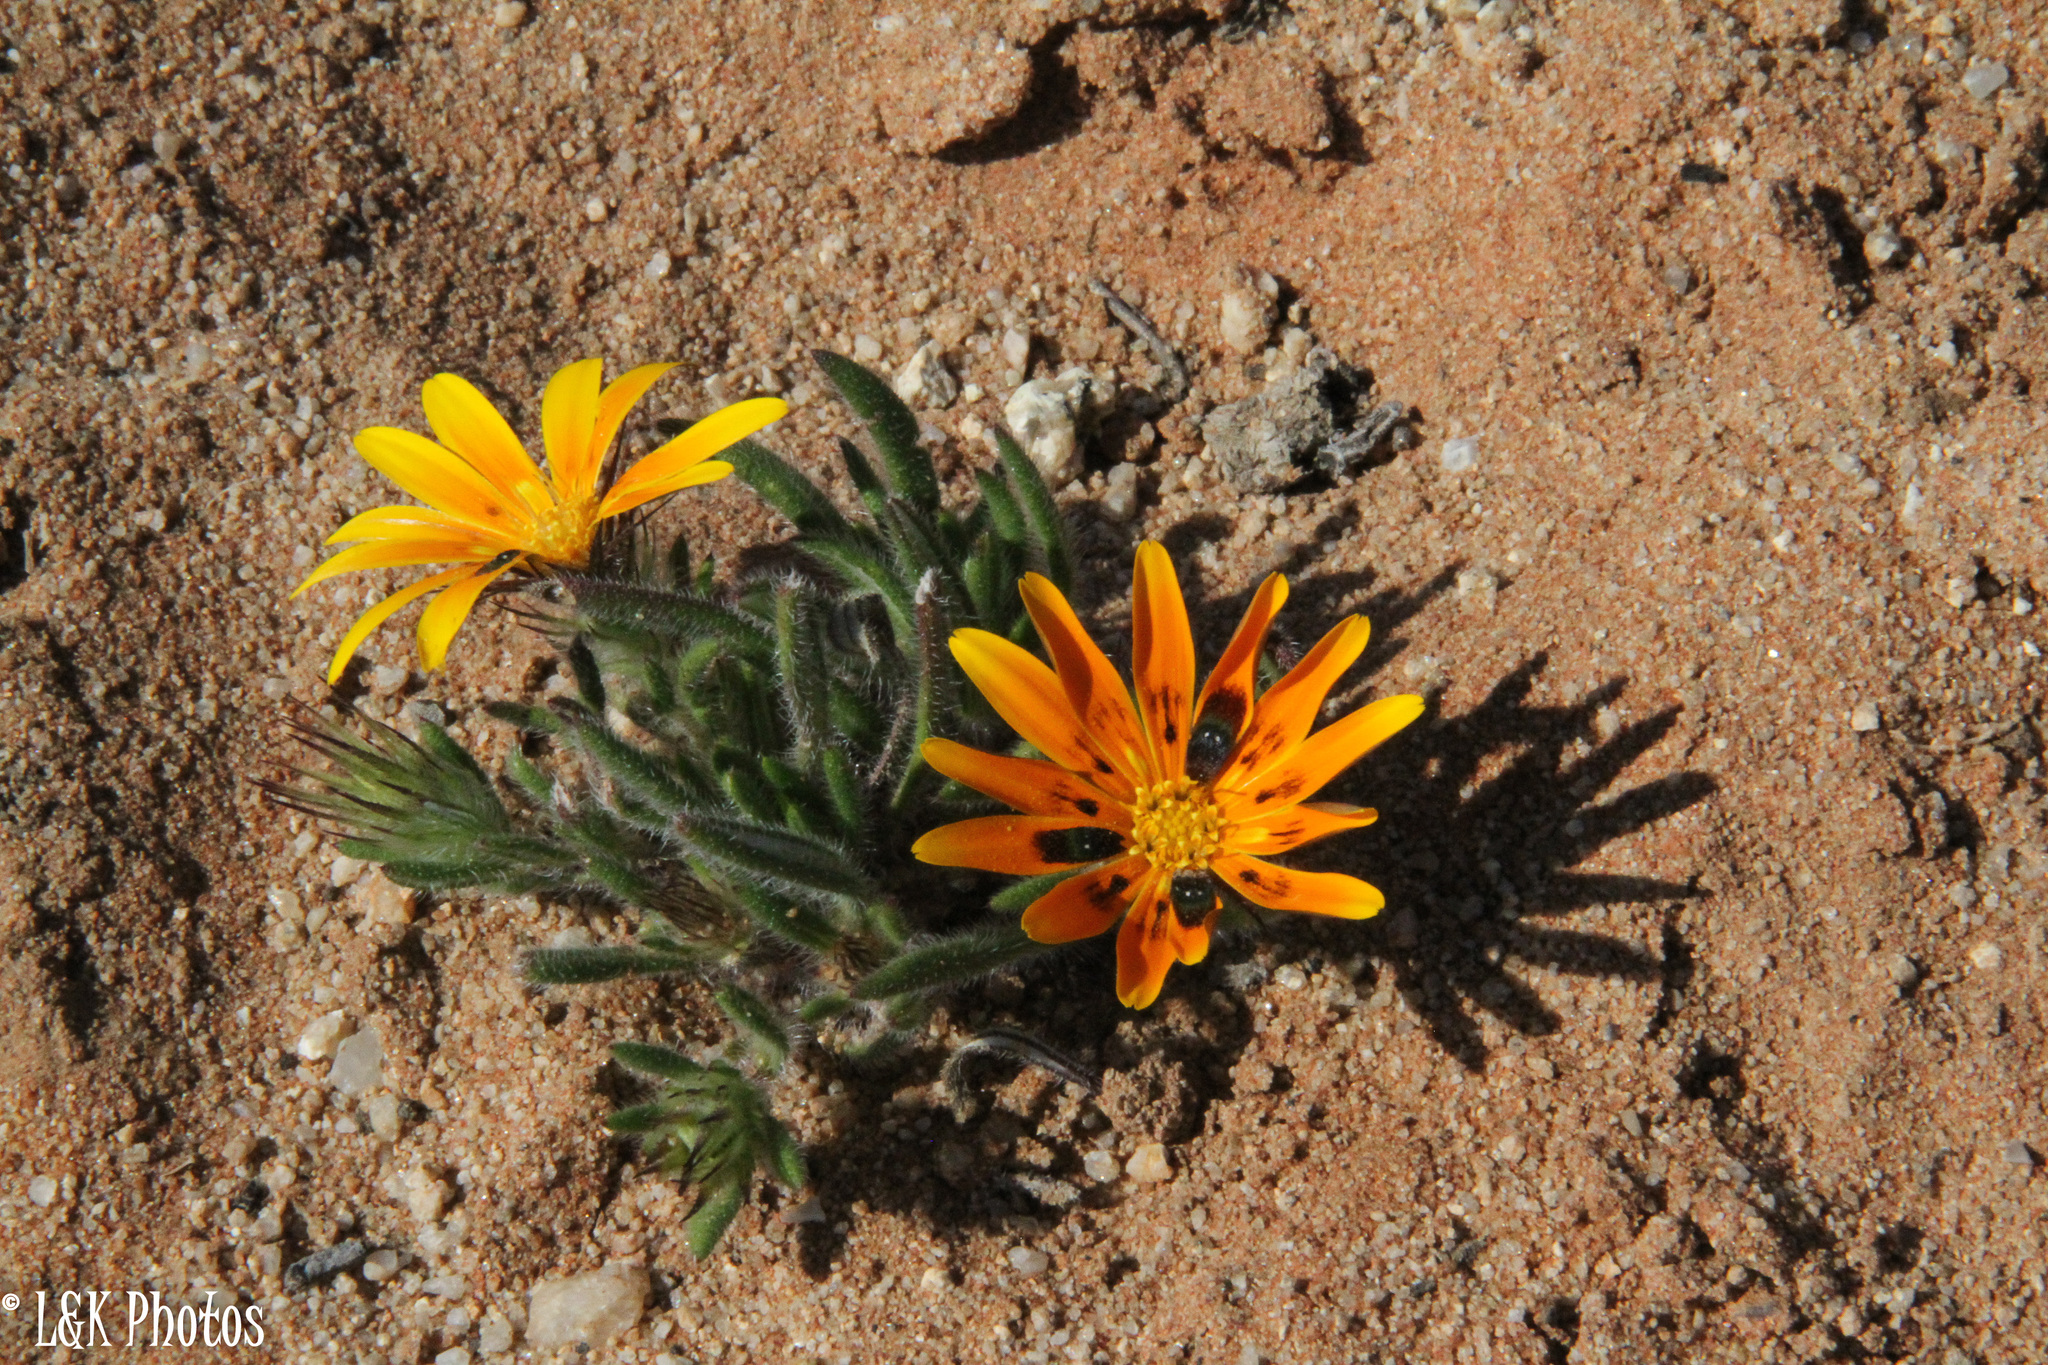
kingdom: Plantae
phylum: Tracheophyta
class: Magnoliopsida
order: Asterales
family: Asteraceae
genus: Gorteria
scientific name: Gorteria diffusa
